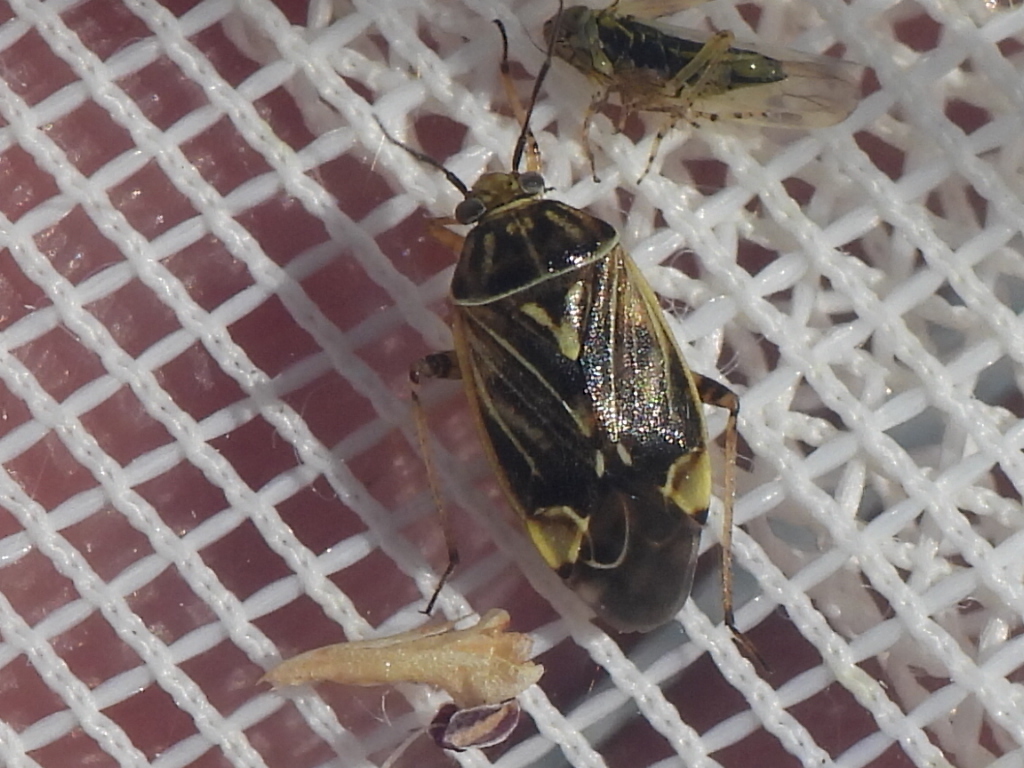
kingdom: Animalia
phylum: Arthropoda
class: Insecta
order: Hemiptera
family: Miridae
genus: Lygus
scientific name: Lygus lineolaris
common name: North american tarnished plant bug
